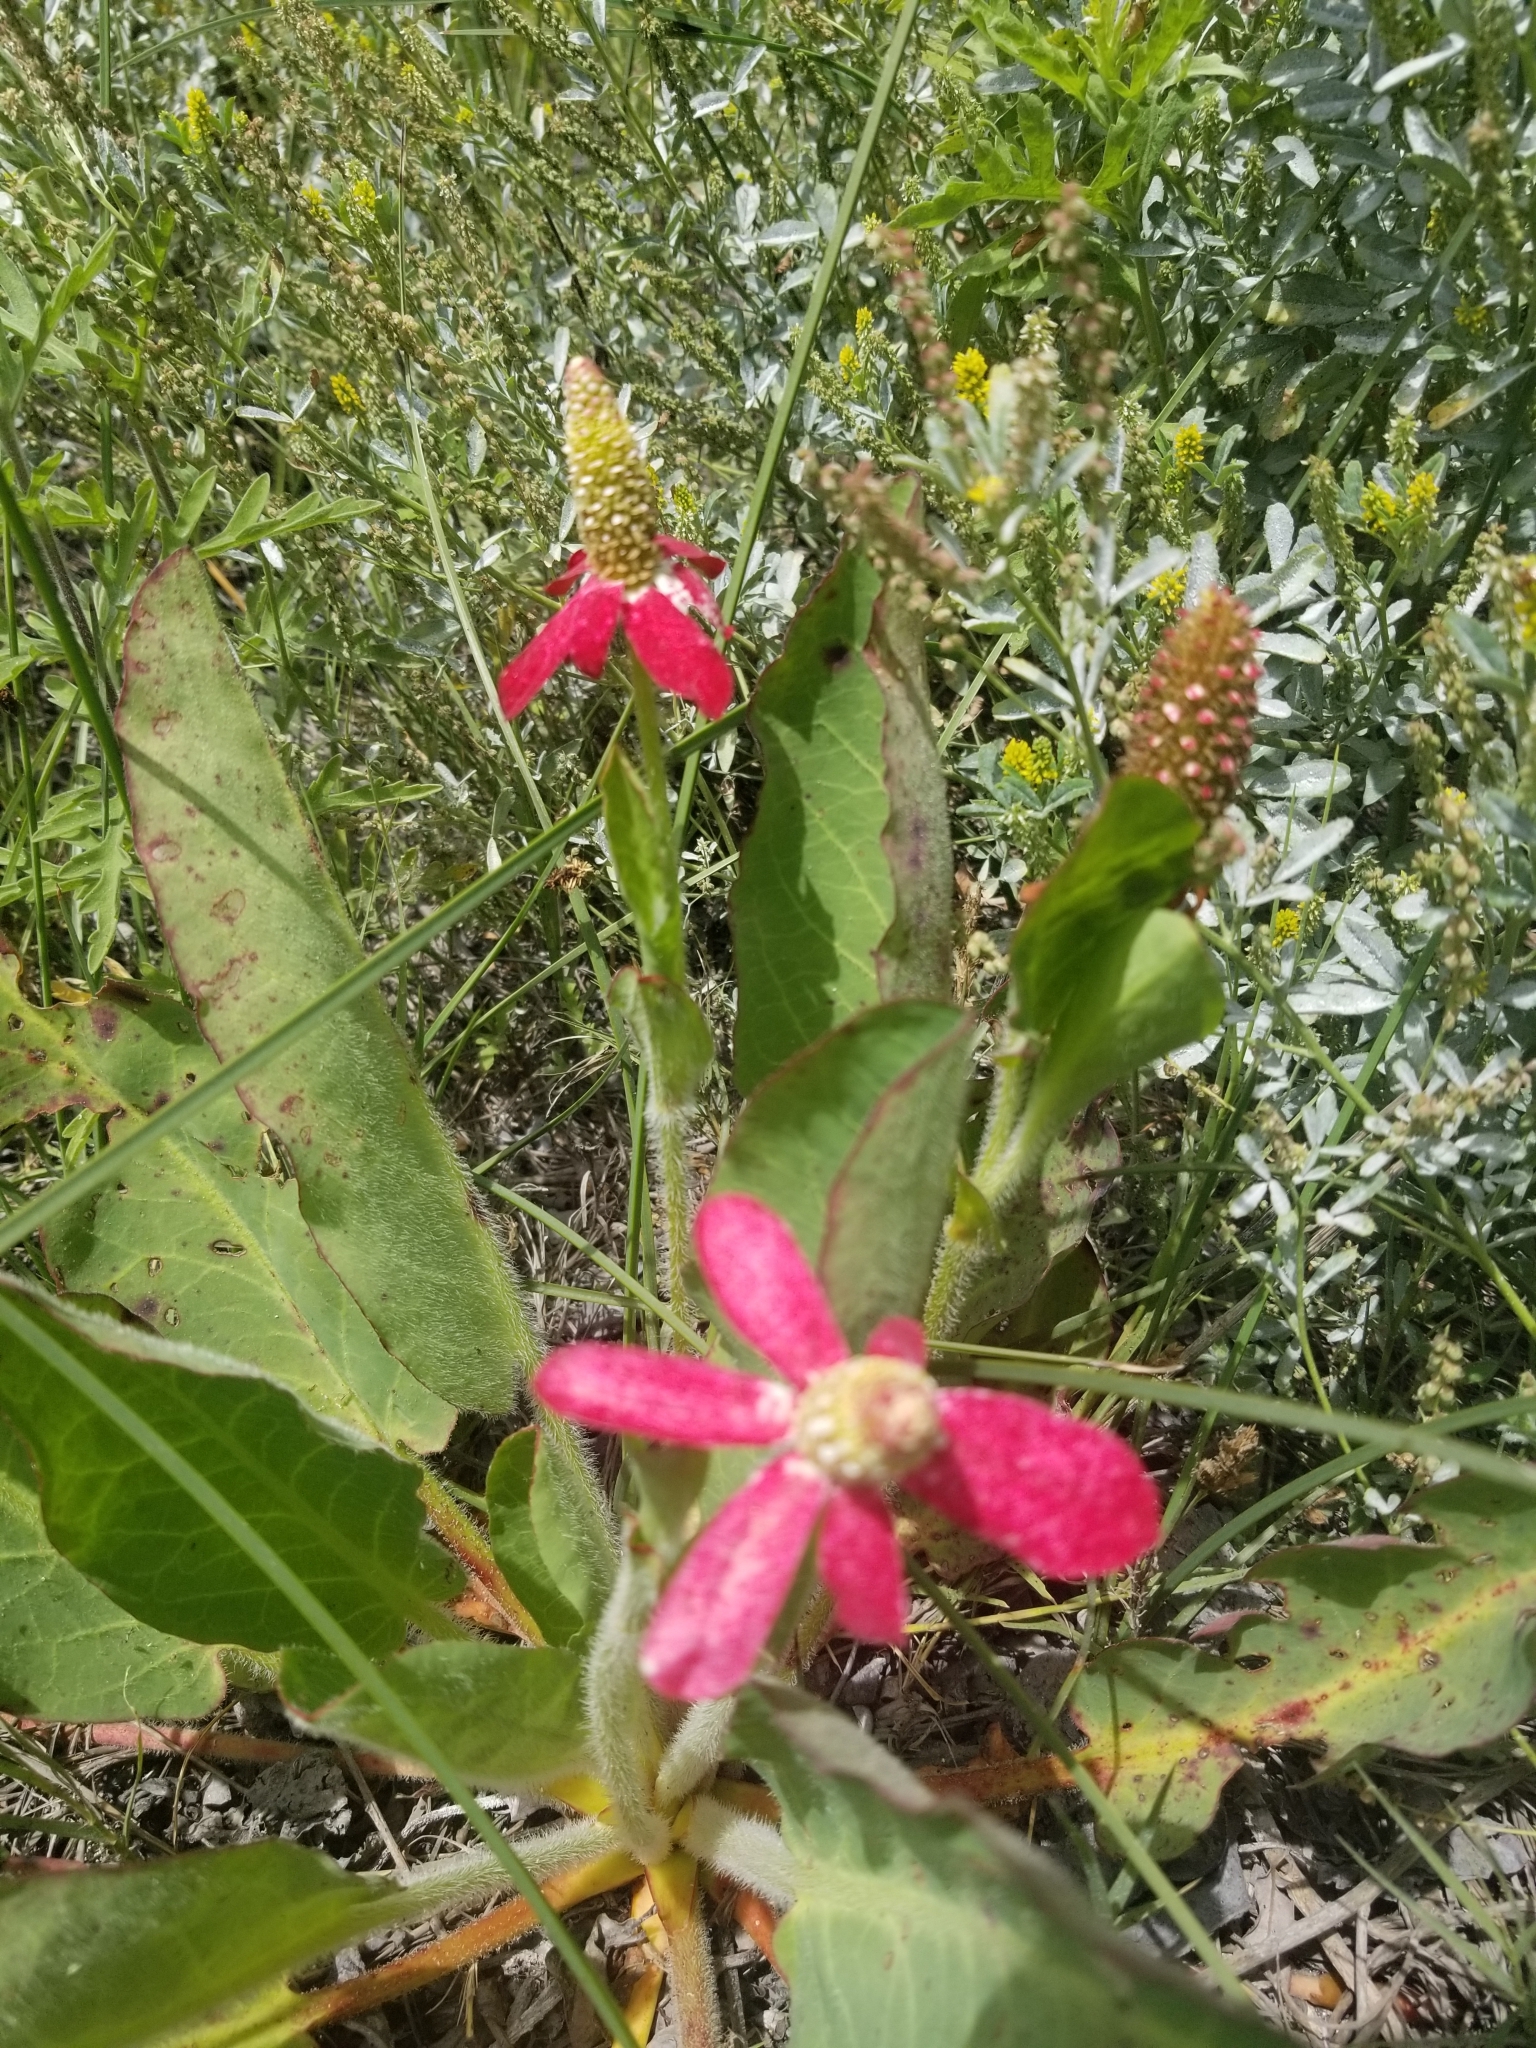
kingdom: Plantae
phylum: Tracheophyta
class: Magnoliopsida
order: Piperales
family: Saururaceae
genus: Anemopsis
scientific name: Anemopsis californica
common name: Apache-beads
